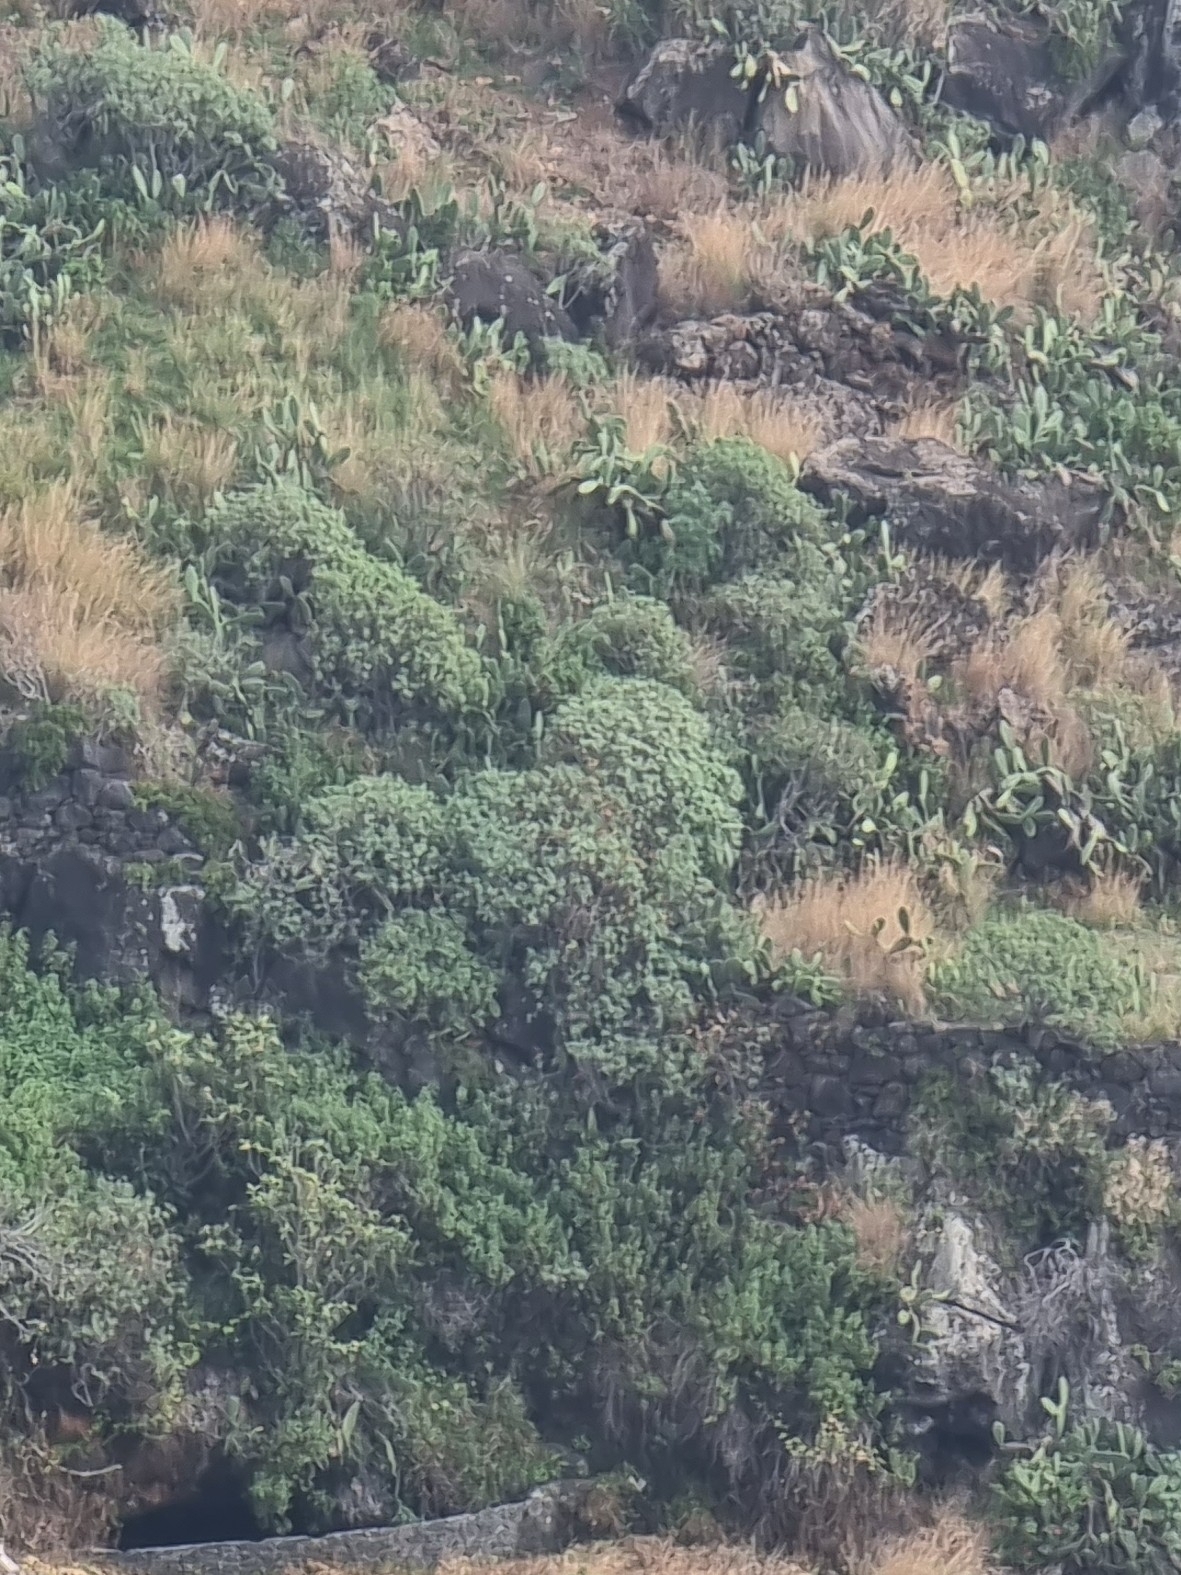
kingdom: Plantae
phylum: Tracheophyta
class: Magnoliopsida
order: Malpighiales
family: Euphorbiaceae
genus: Euphorbia
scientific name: Euphorbia piscatoria
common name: Fish-stunning spurge
